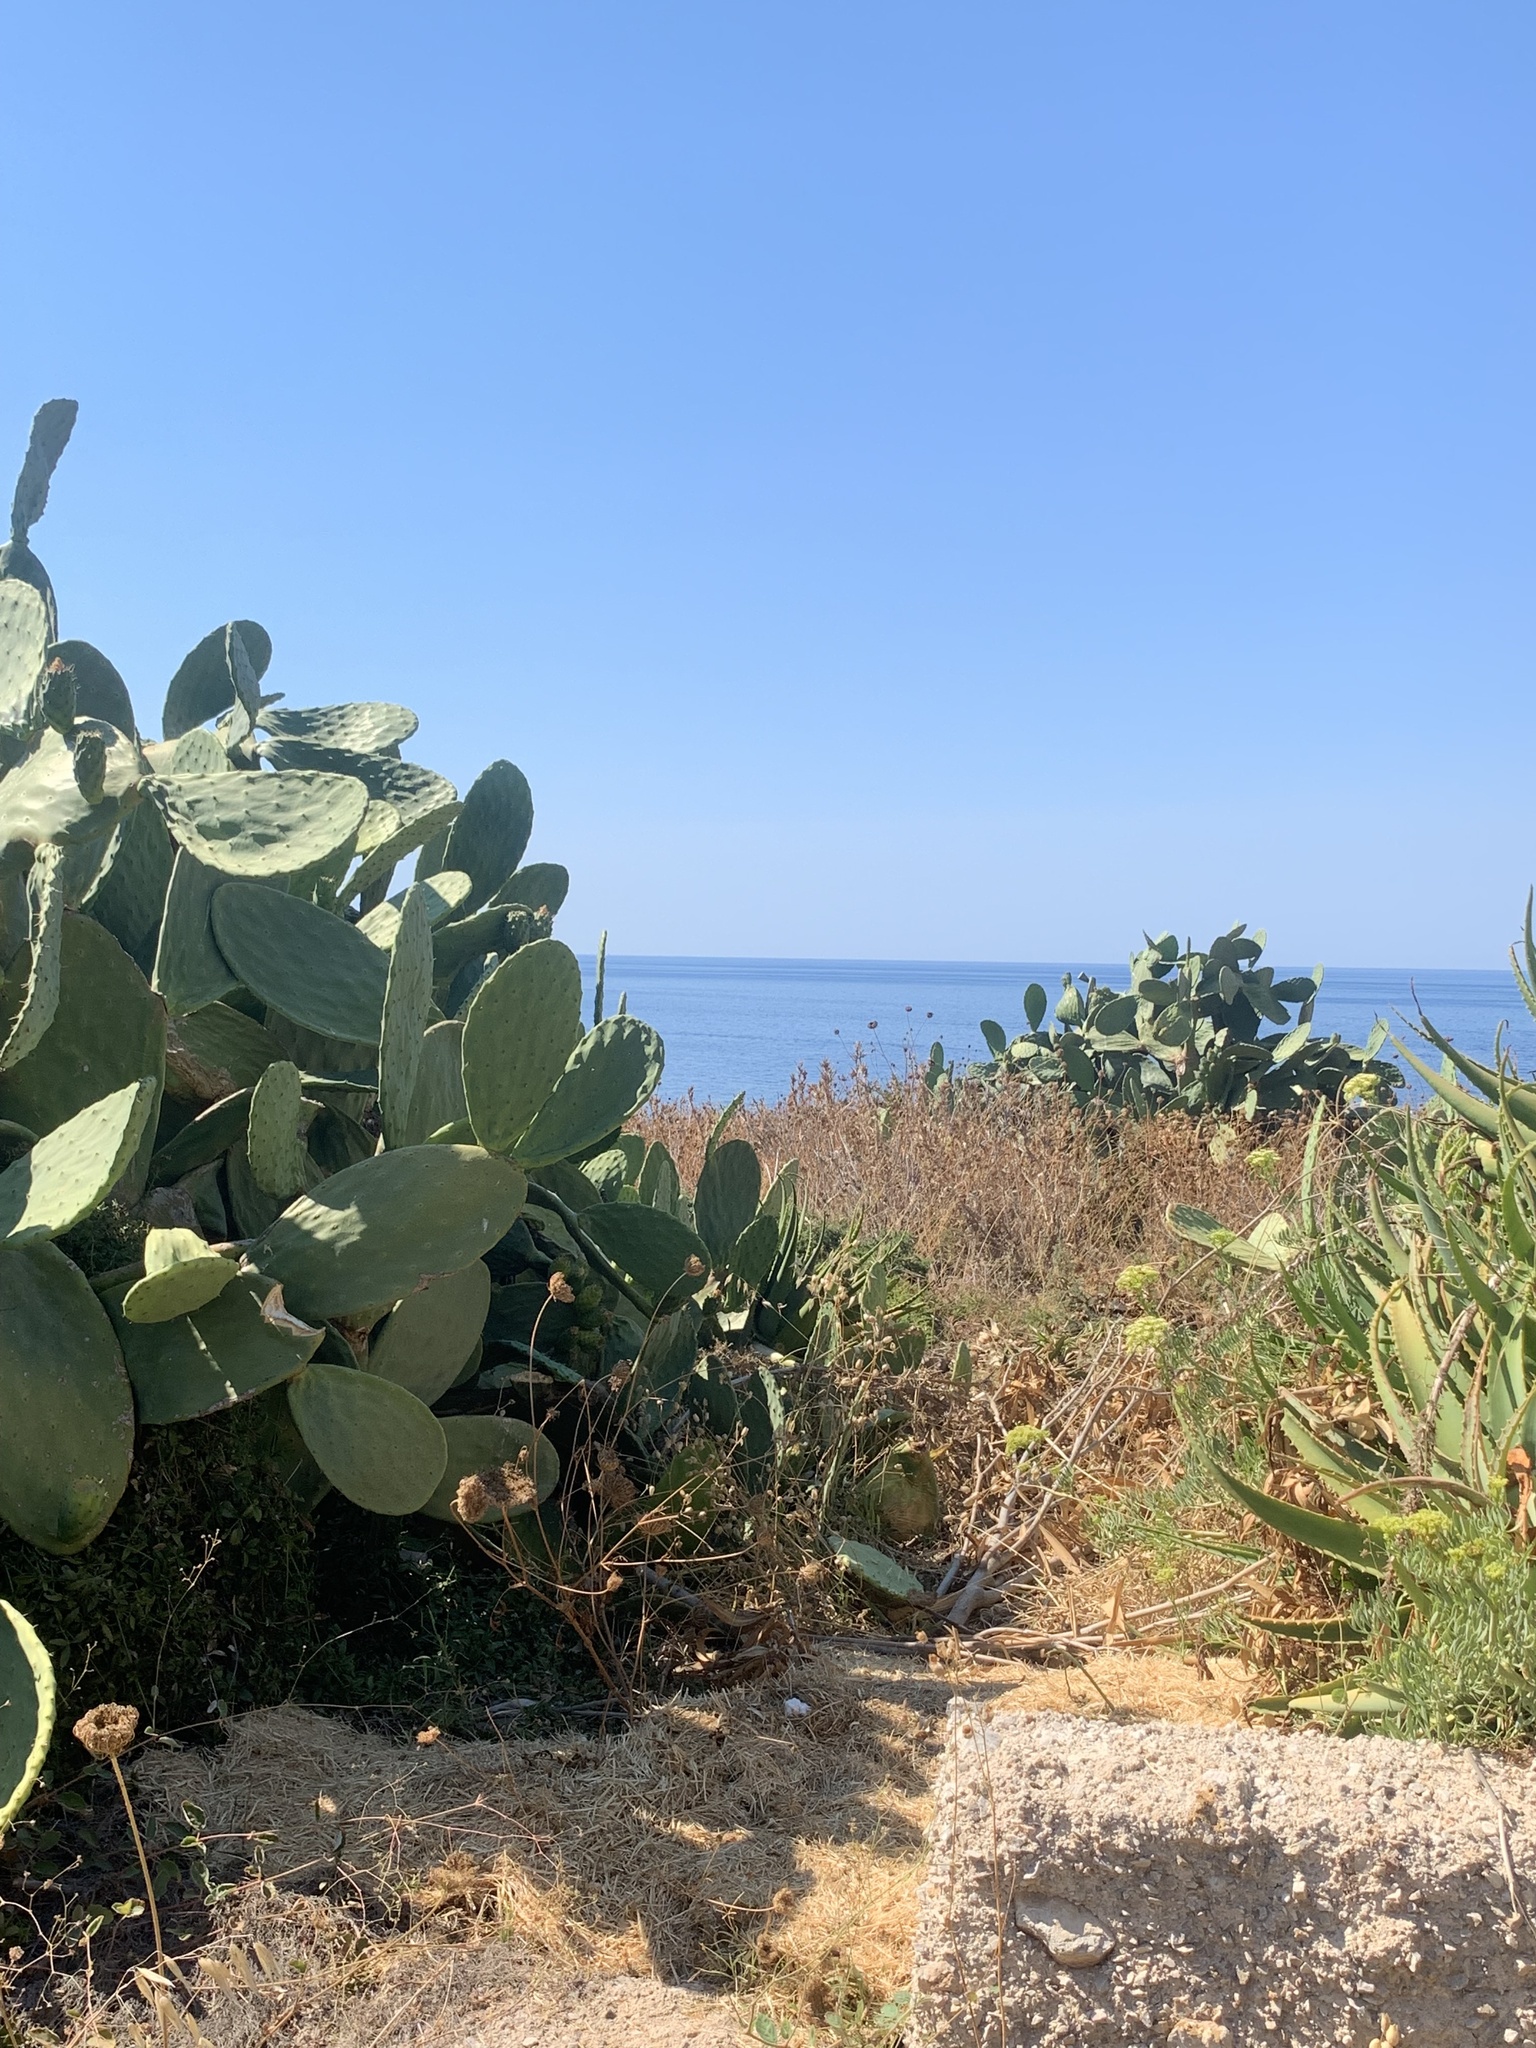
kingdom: Plantae
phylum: Tracheophyta
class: Magnoliopsida
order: Caryophyllales
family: Cactaceae
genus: Opuntia
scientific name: Opuntia ficus-indica
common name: Barbary fig
